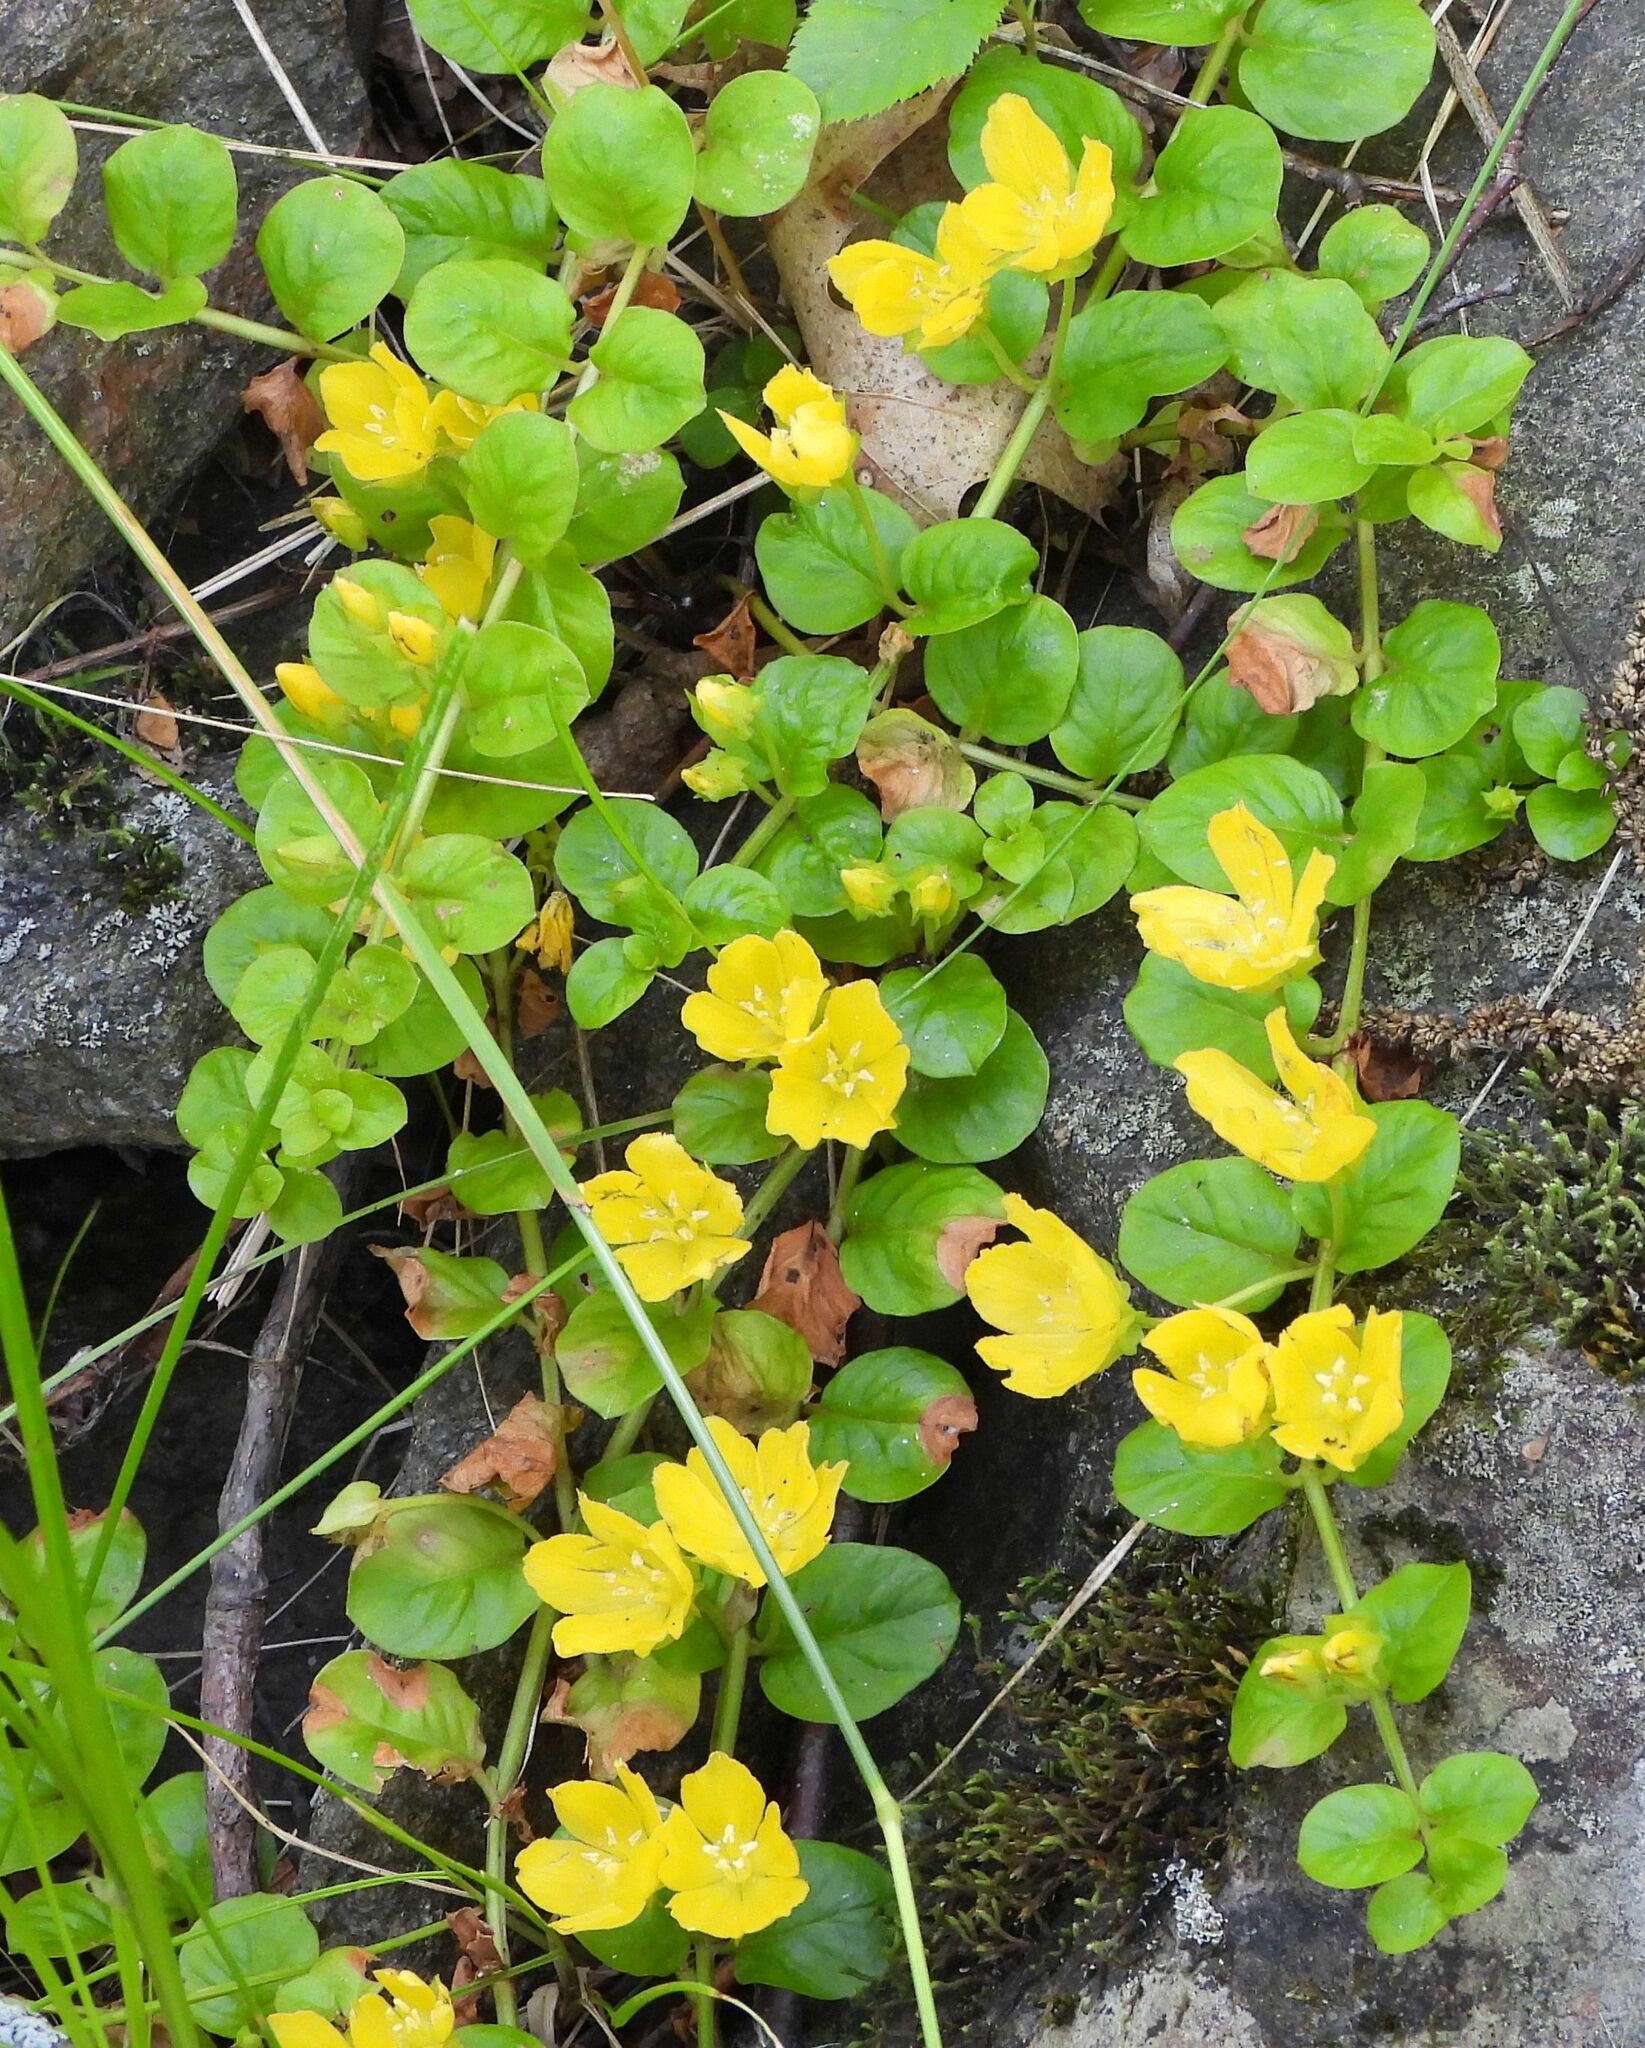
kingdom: Plantae
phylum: Tracheophyta
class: Magnoliopsida
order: Ericales
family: Primulaceae
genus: Lysimachia
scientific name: Lysimachia nummularia
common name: Moneywort
